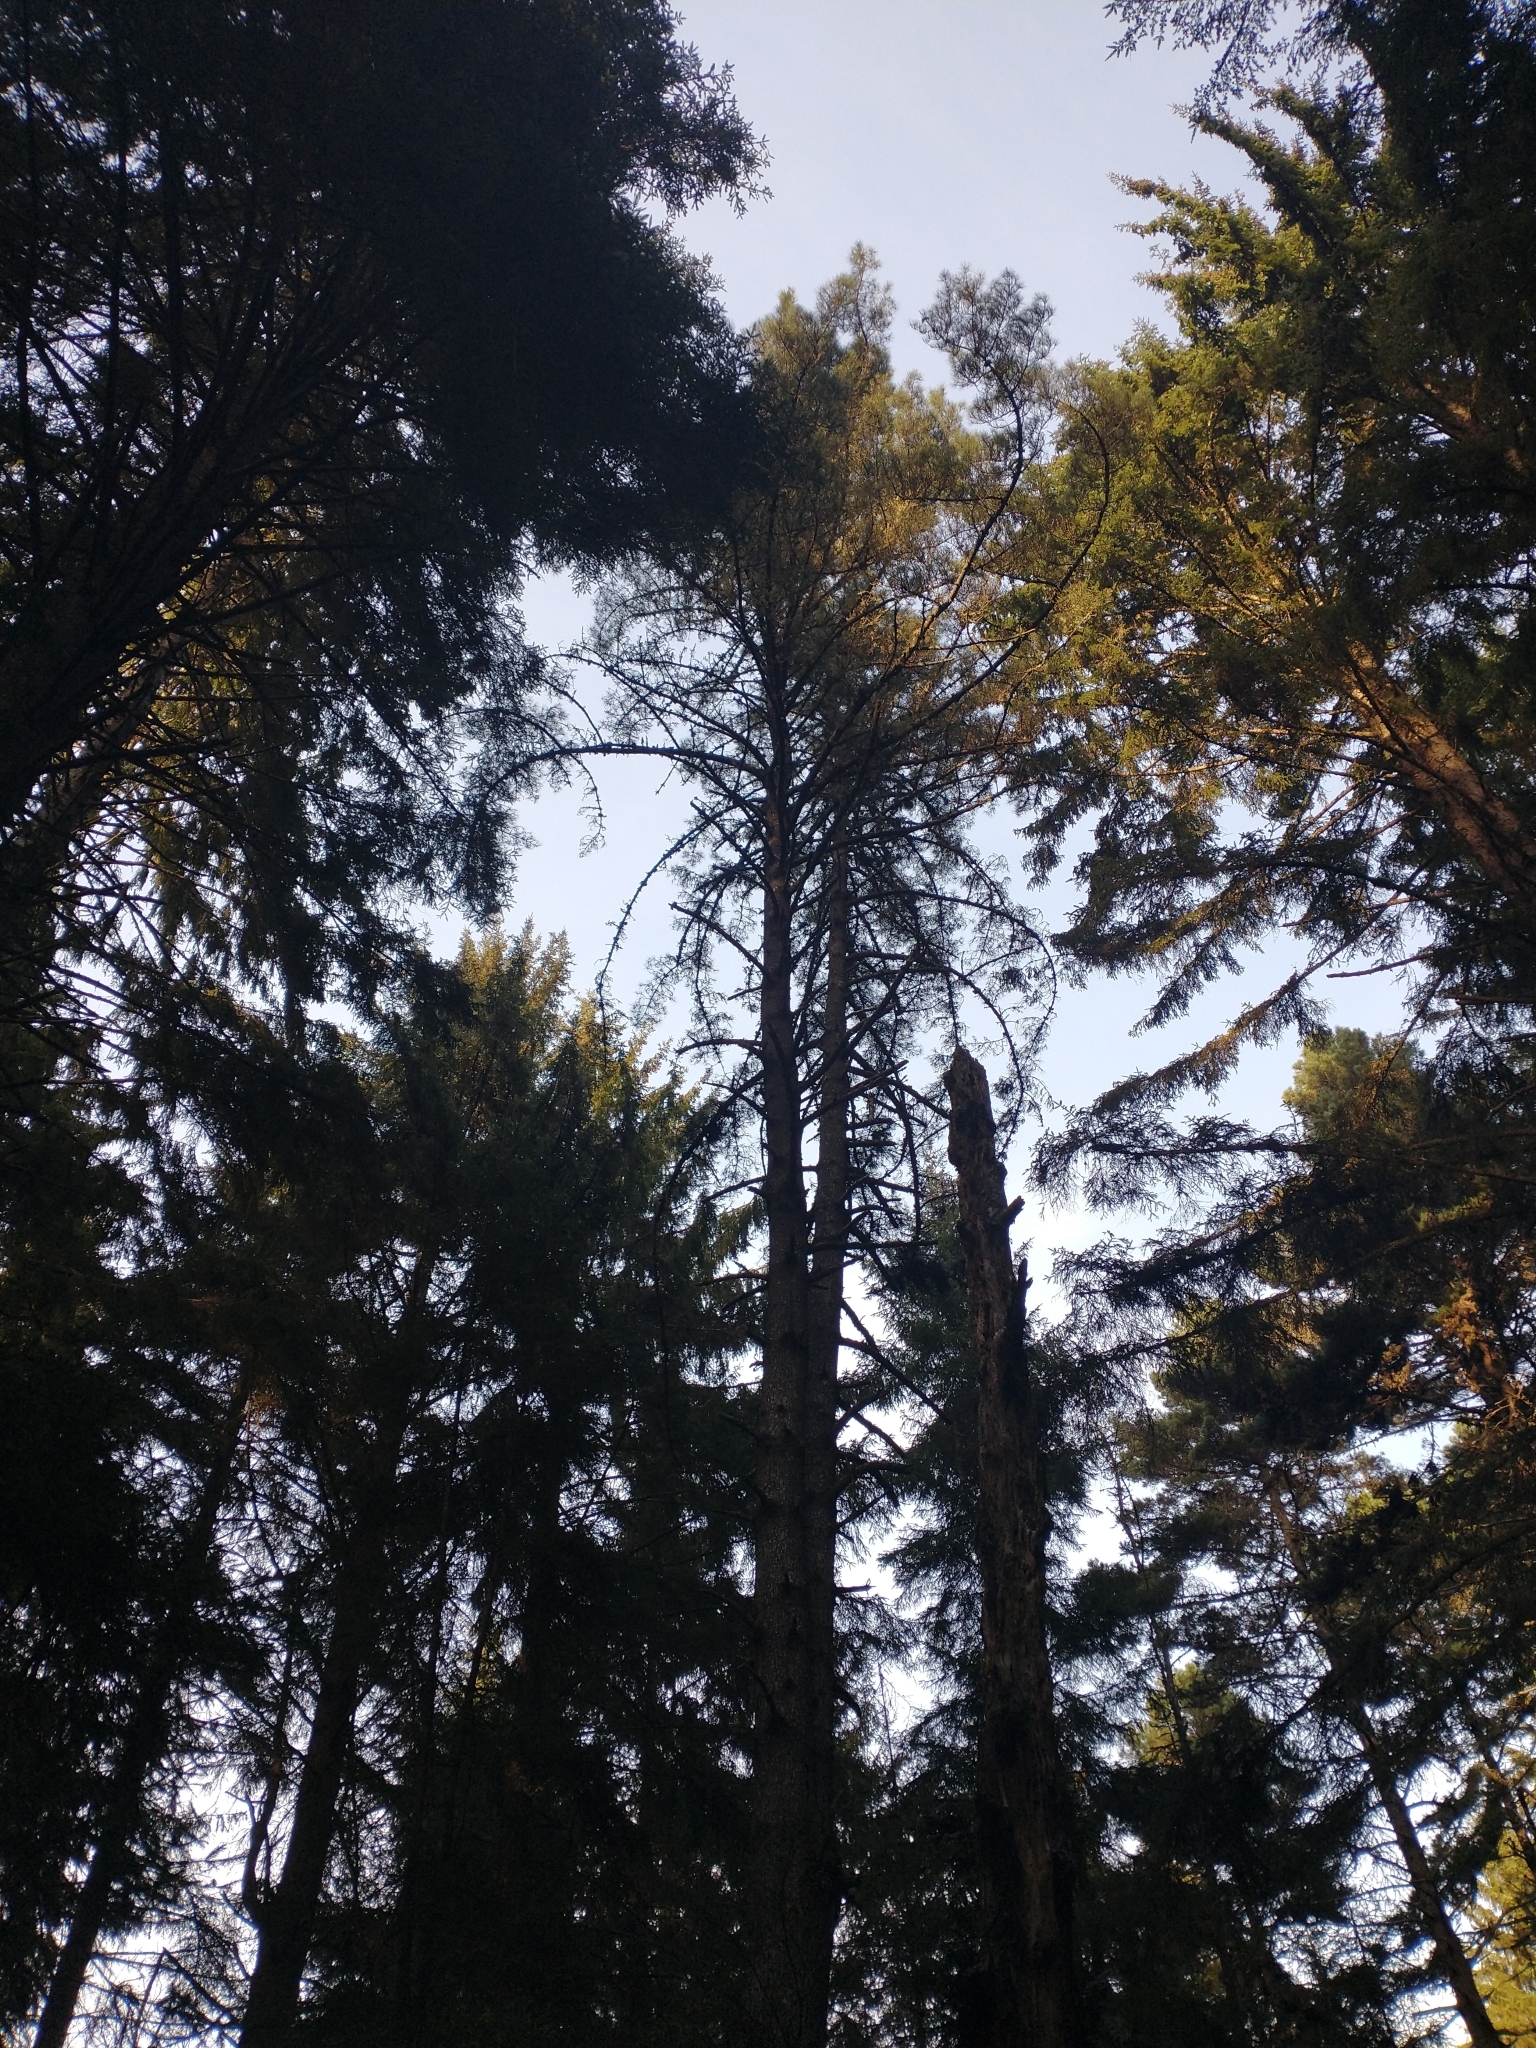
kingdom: Plantae
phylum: Tracheophyta
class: Pinopsida
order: Pinales
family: Pinaceae
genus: Pinus
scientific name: Pinus muricata
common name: Bishop pine
